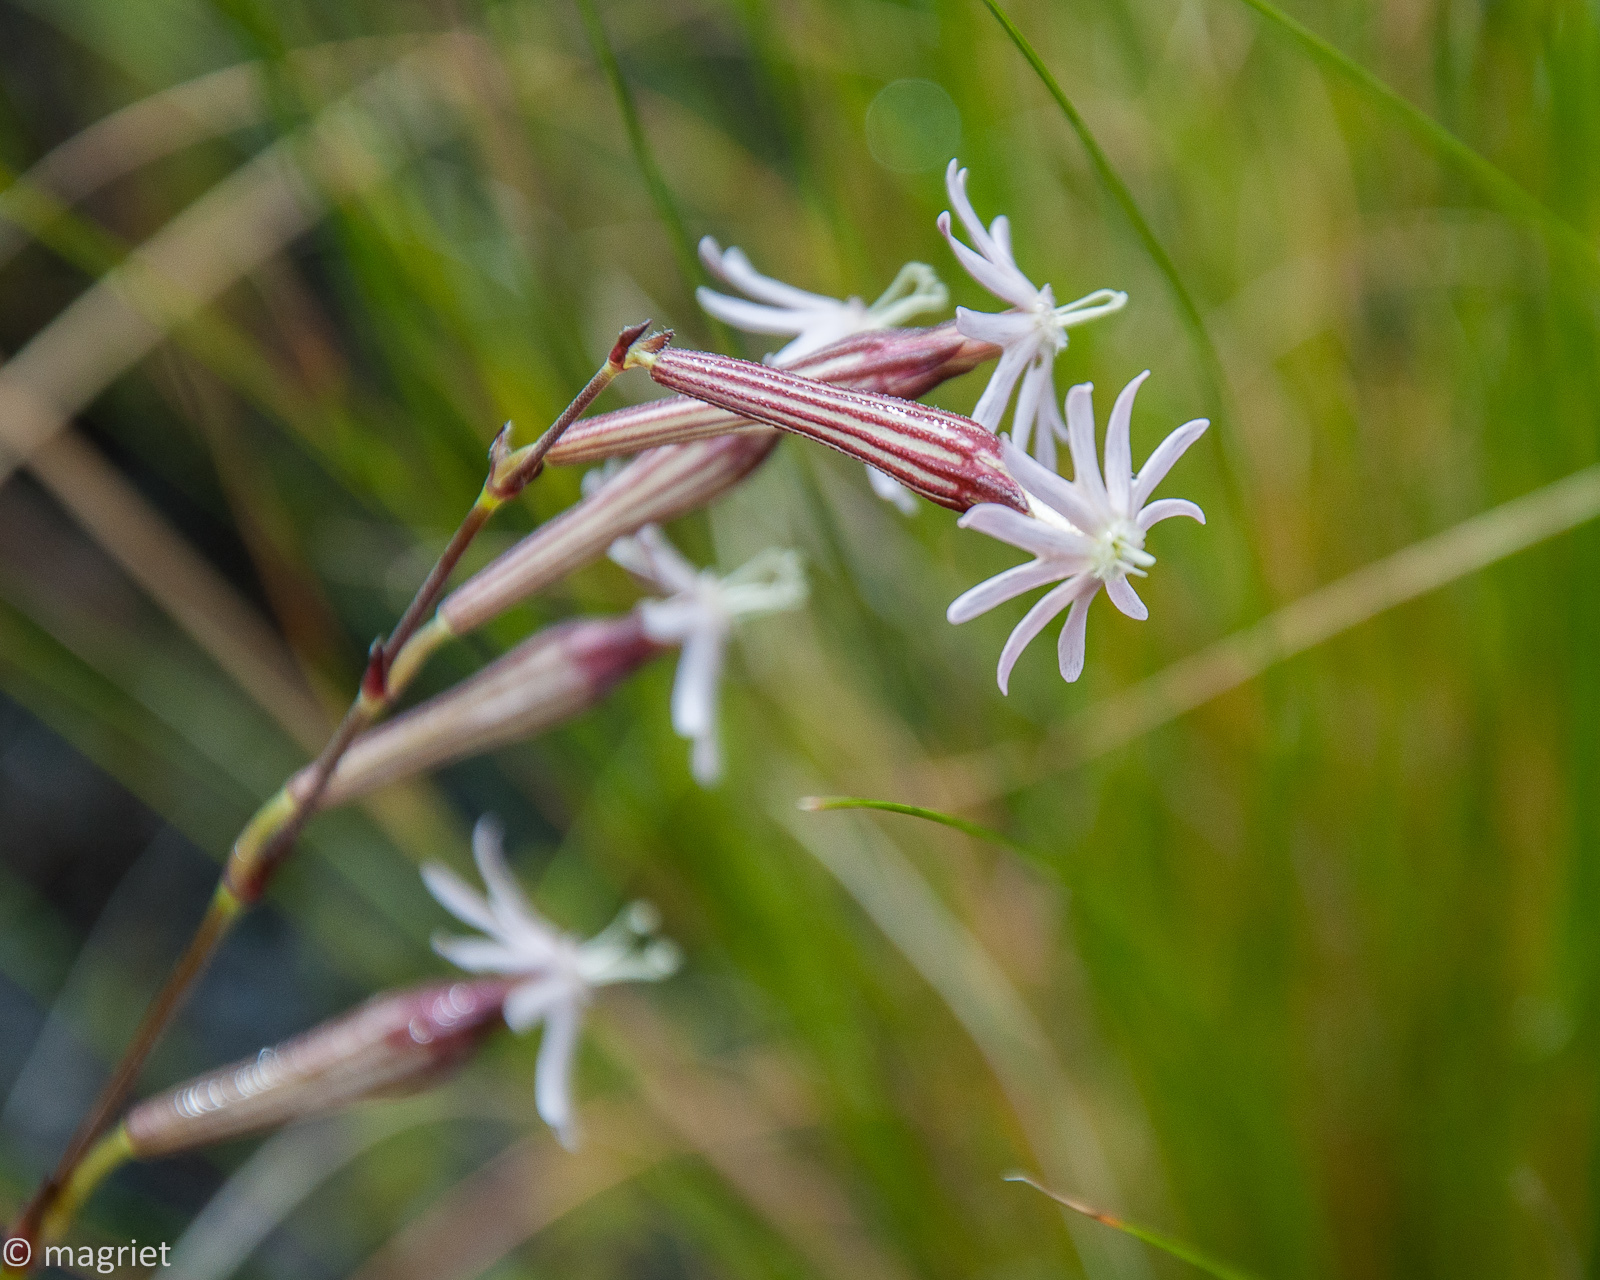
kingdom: Plantae
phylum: Tracheophyta
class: Magnoliopsida
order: Caryophyllales
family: Caryophyllaceae
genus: Silene
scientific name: Silene burchellii
